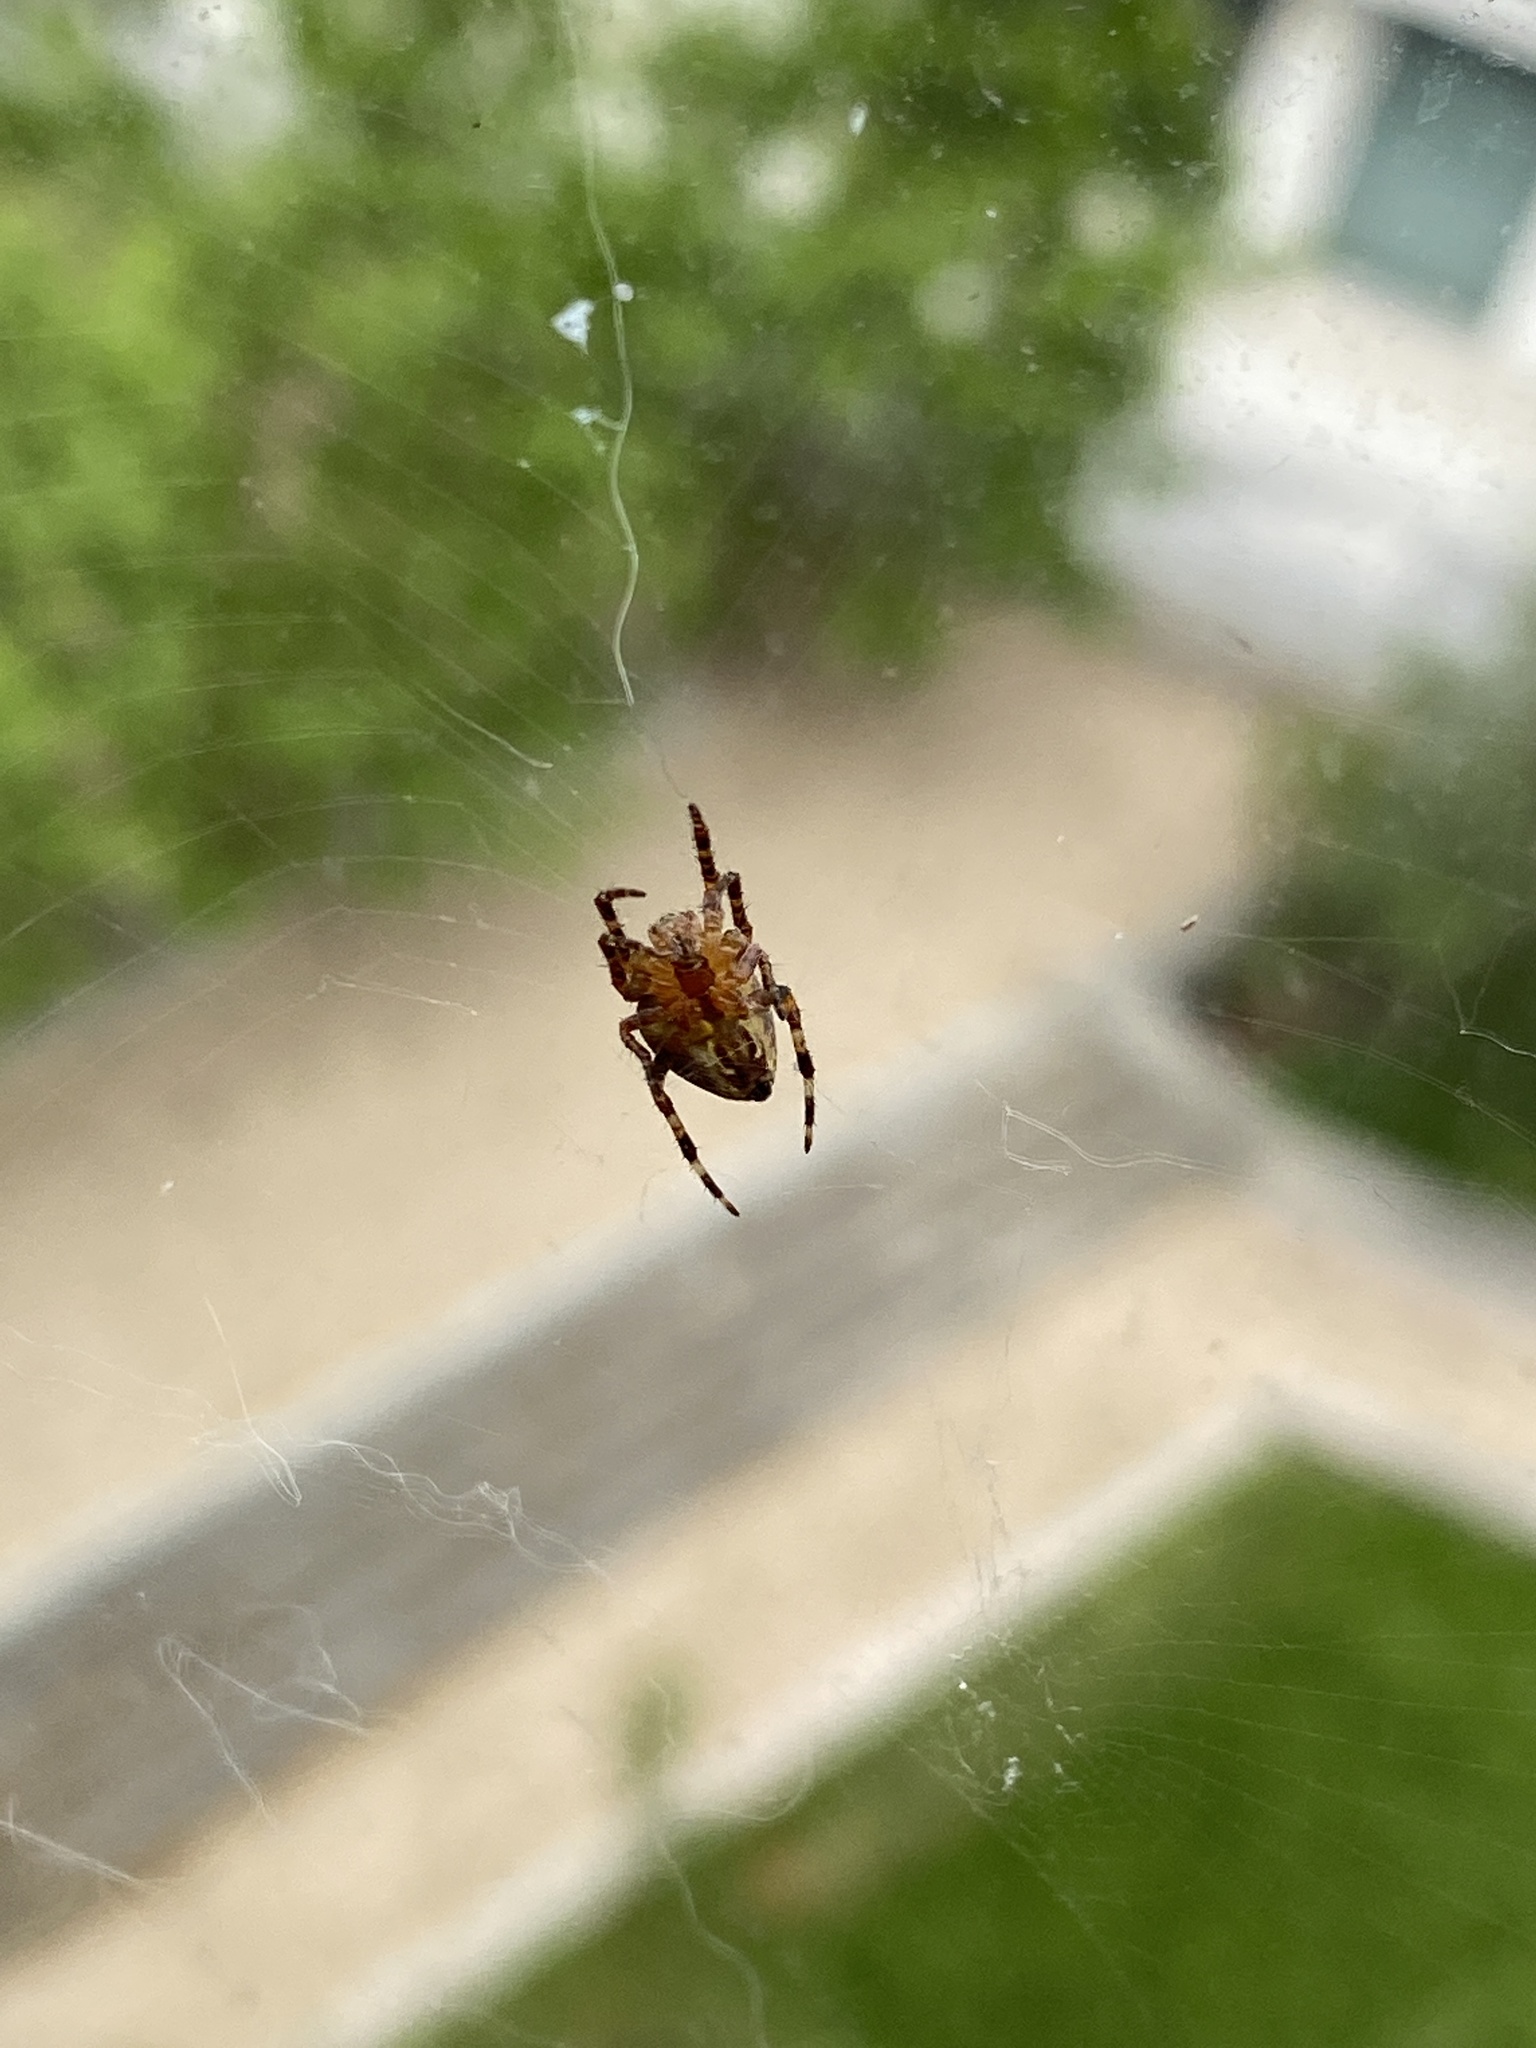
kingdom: Animalia
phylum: Arthropoda
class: Arachnida
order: Araneae
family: Araneidae
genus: Araneus
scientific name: Araneus diadematus
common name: Cross orbweaver
